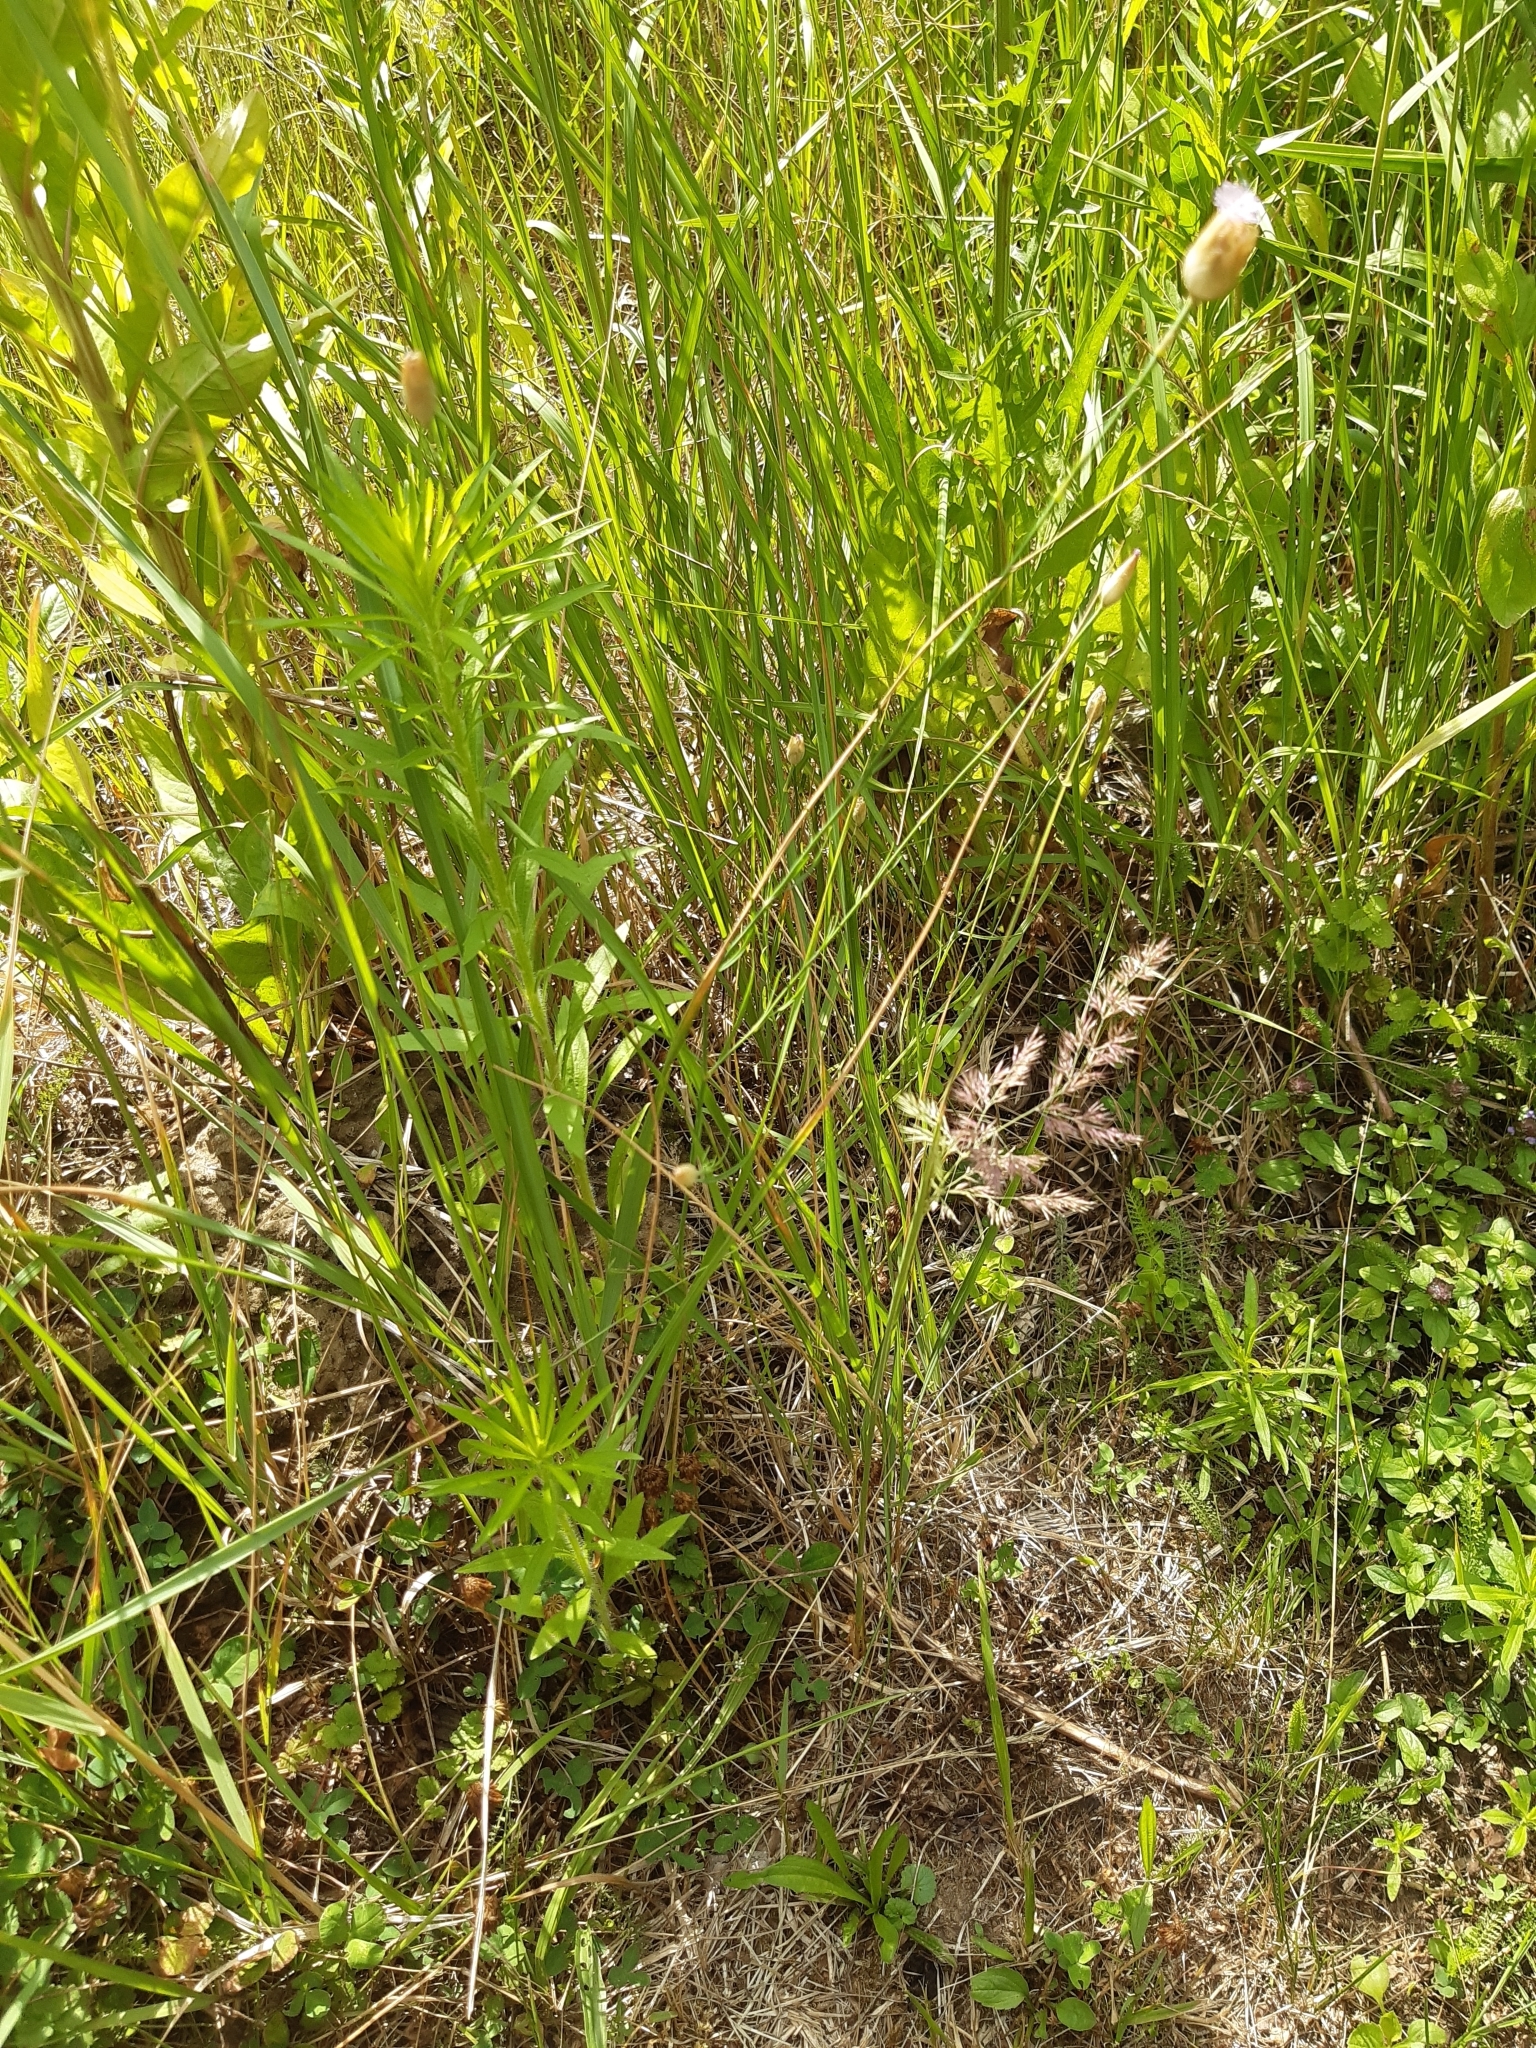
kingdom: Plantae
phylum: Tracheophyta
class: Magnoliopsida
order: Caryophyllales
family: Caryophyllaceae
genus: Petrorhagia
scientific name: Petrorhagia prolifera
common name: Proliferous pink
